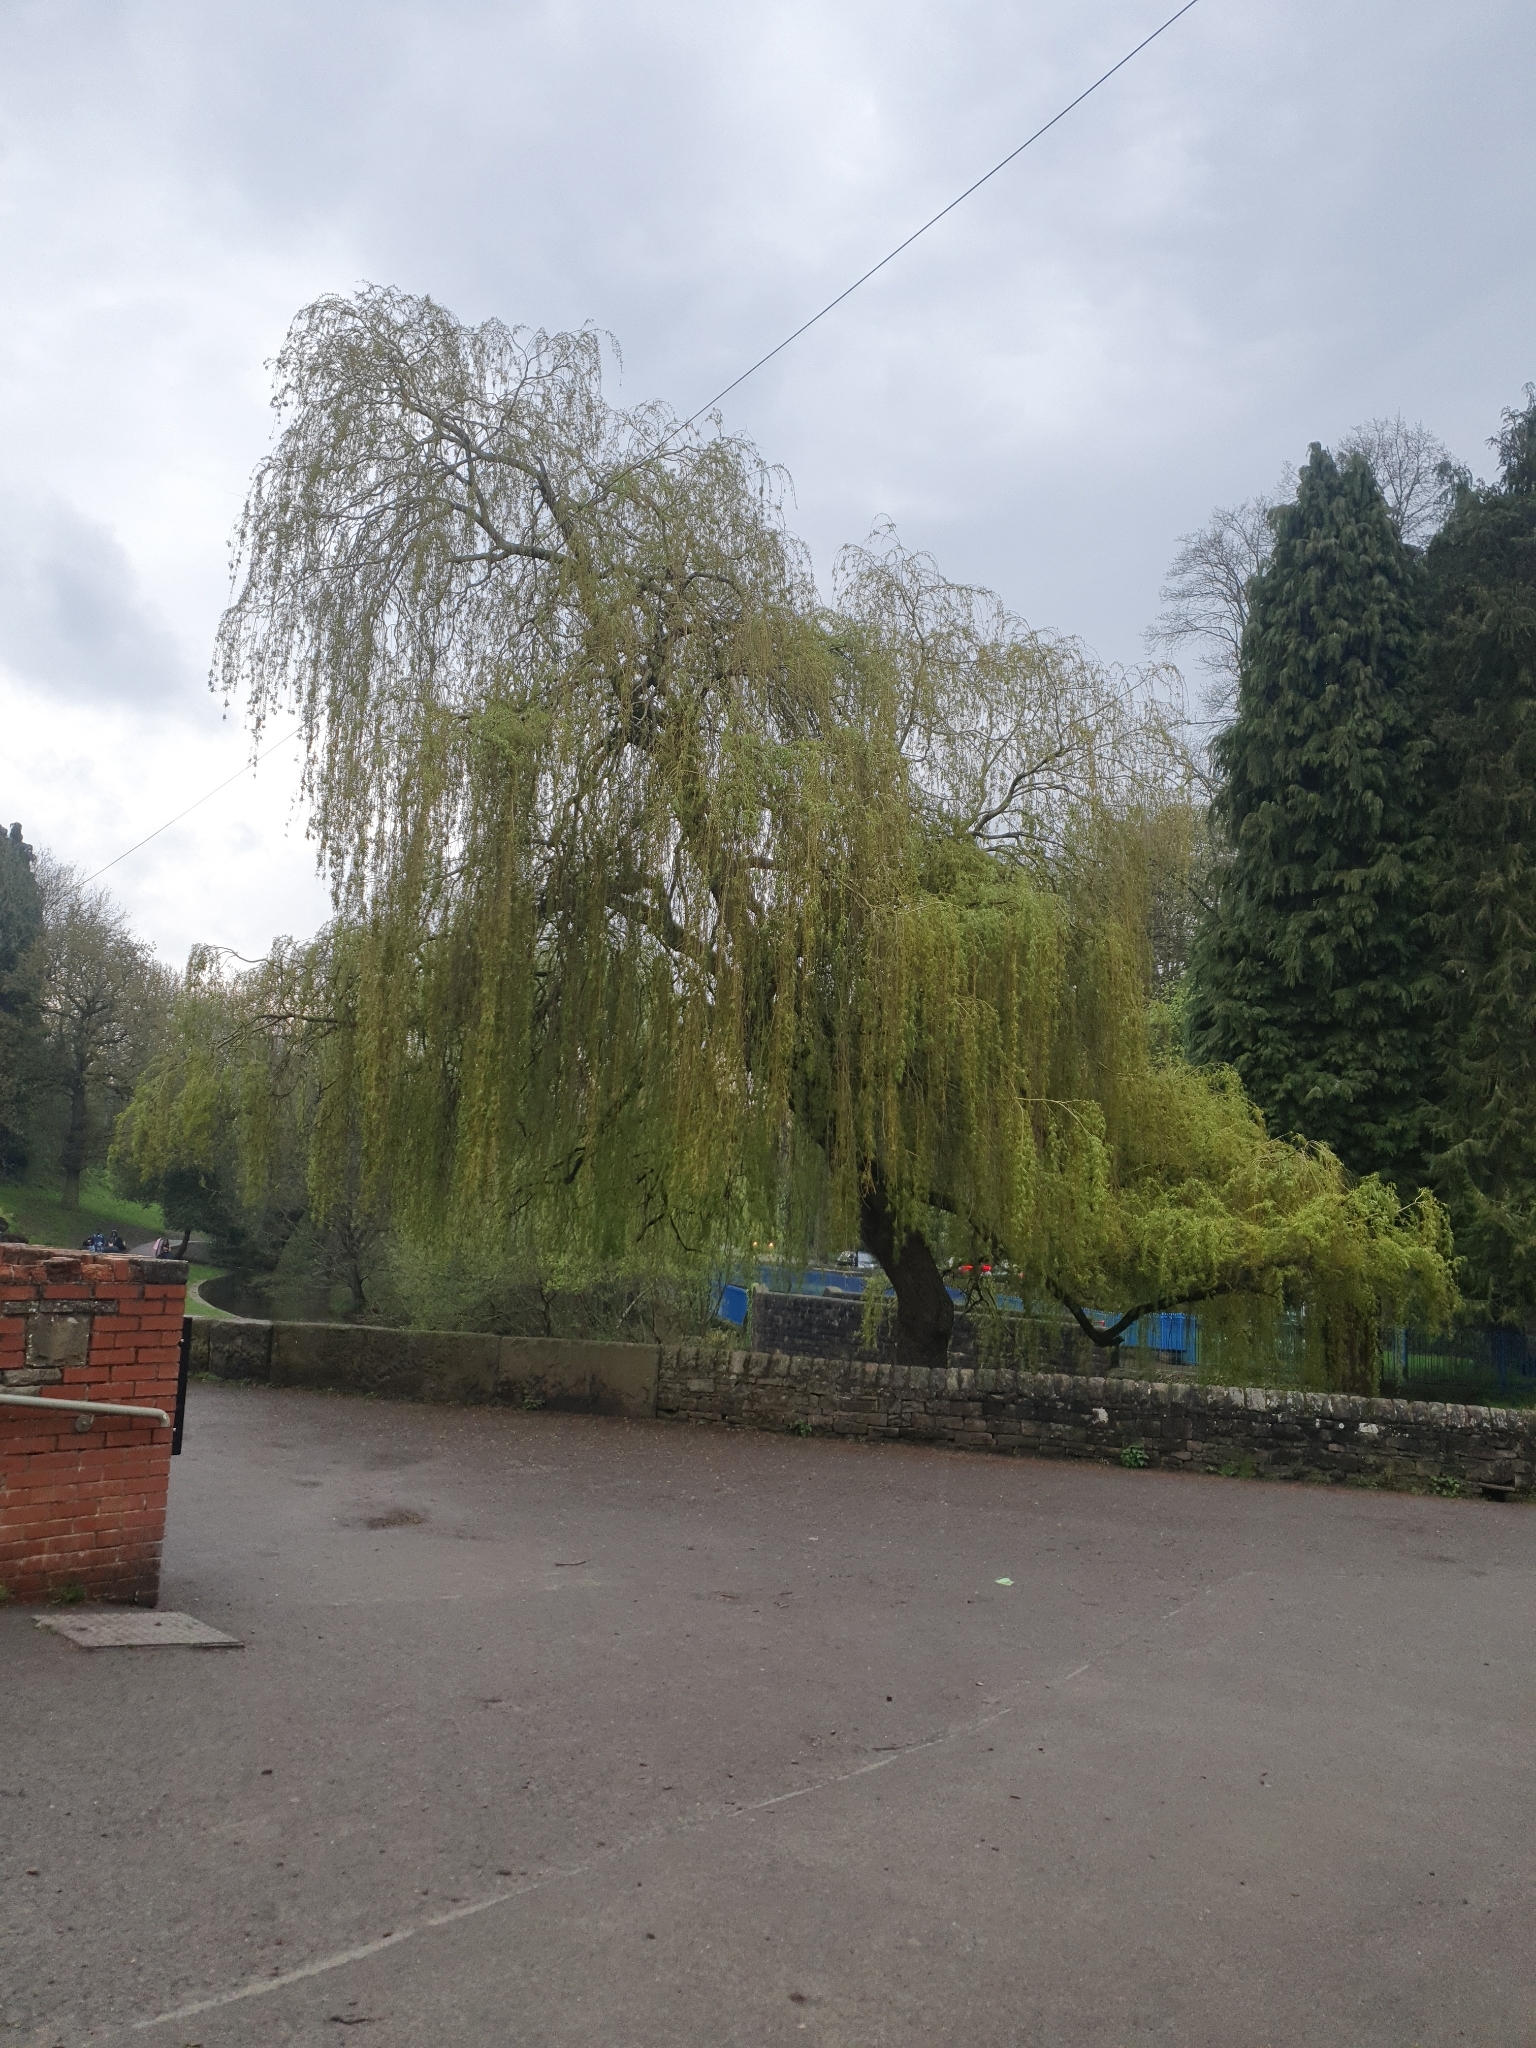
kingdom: Plantae
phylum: Tracheophyta
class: Magnoliopsida
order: Malpighiales
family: Salicaceae
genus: Salix
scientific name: Salix pendulina
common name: Wisconsin weeping willow
